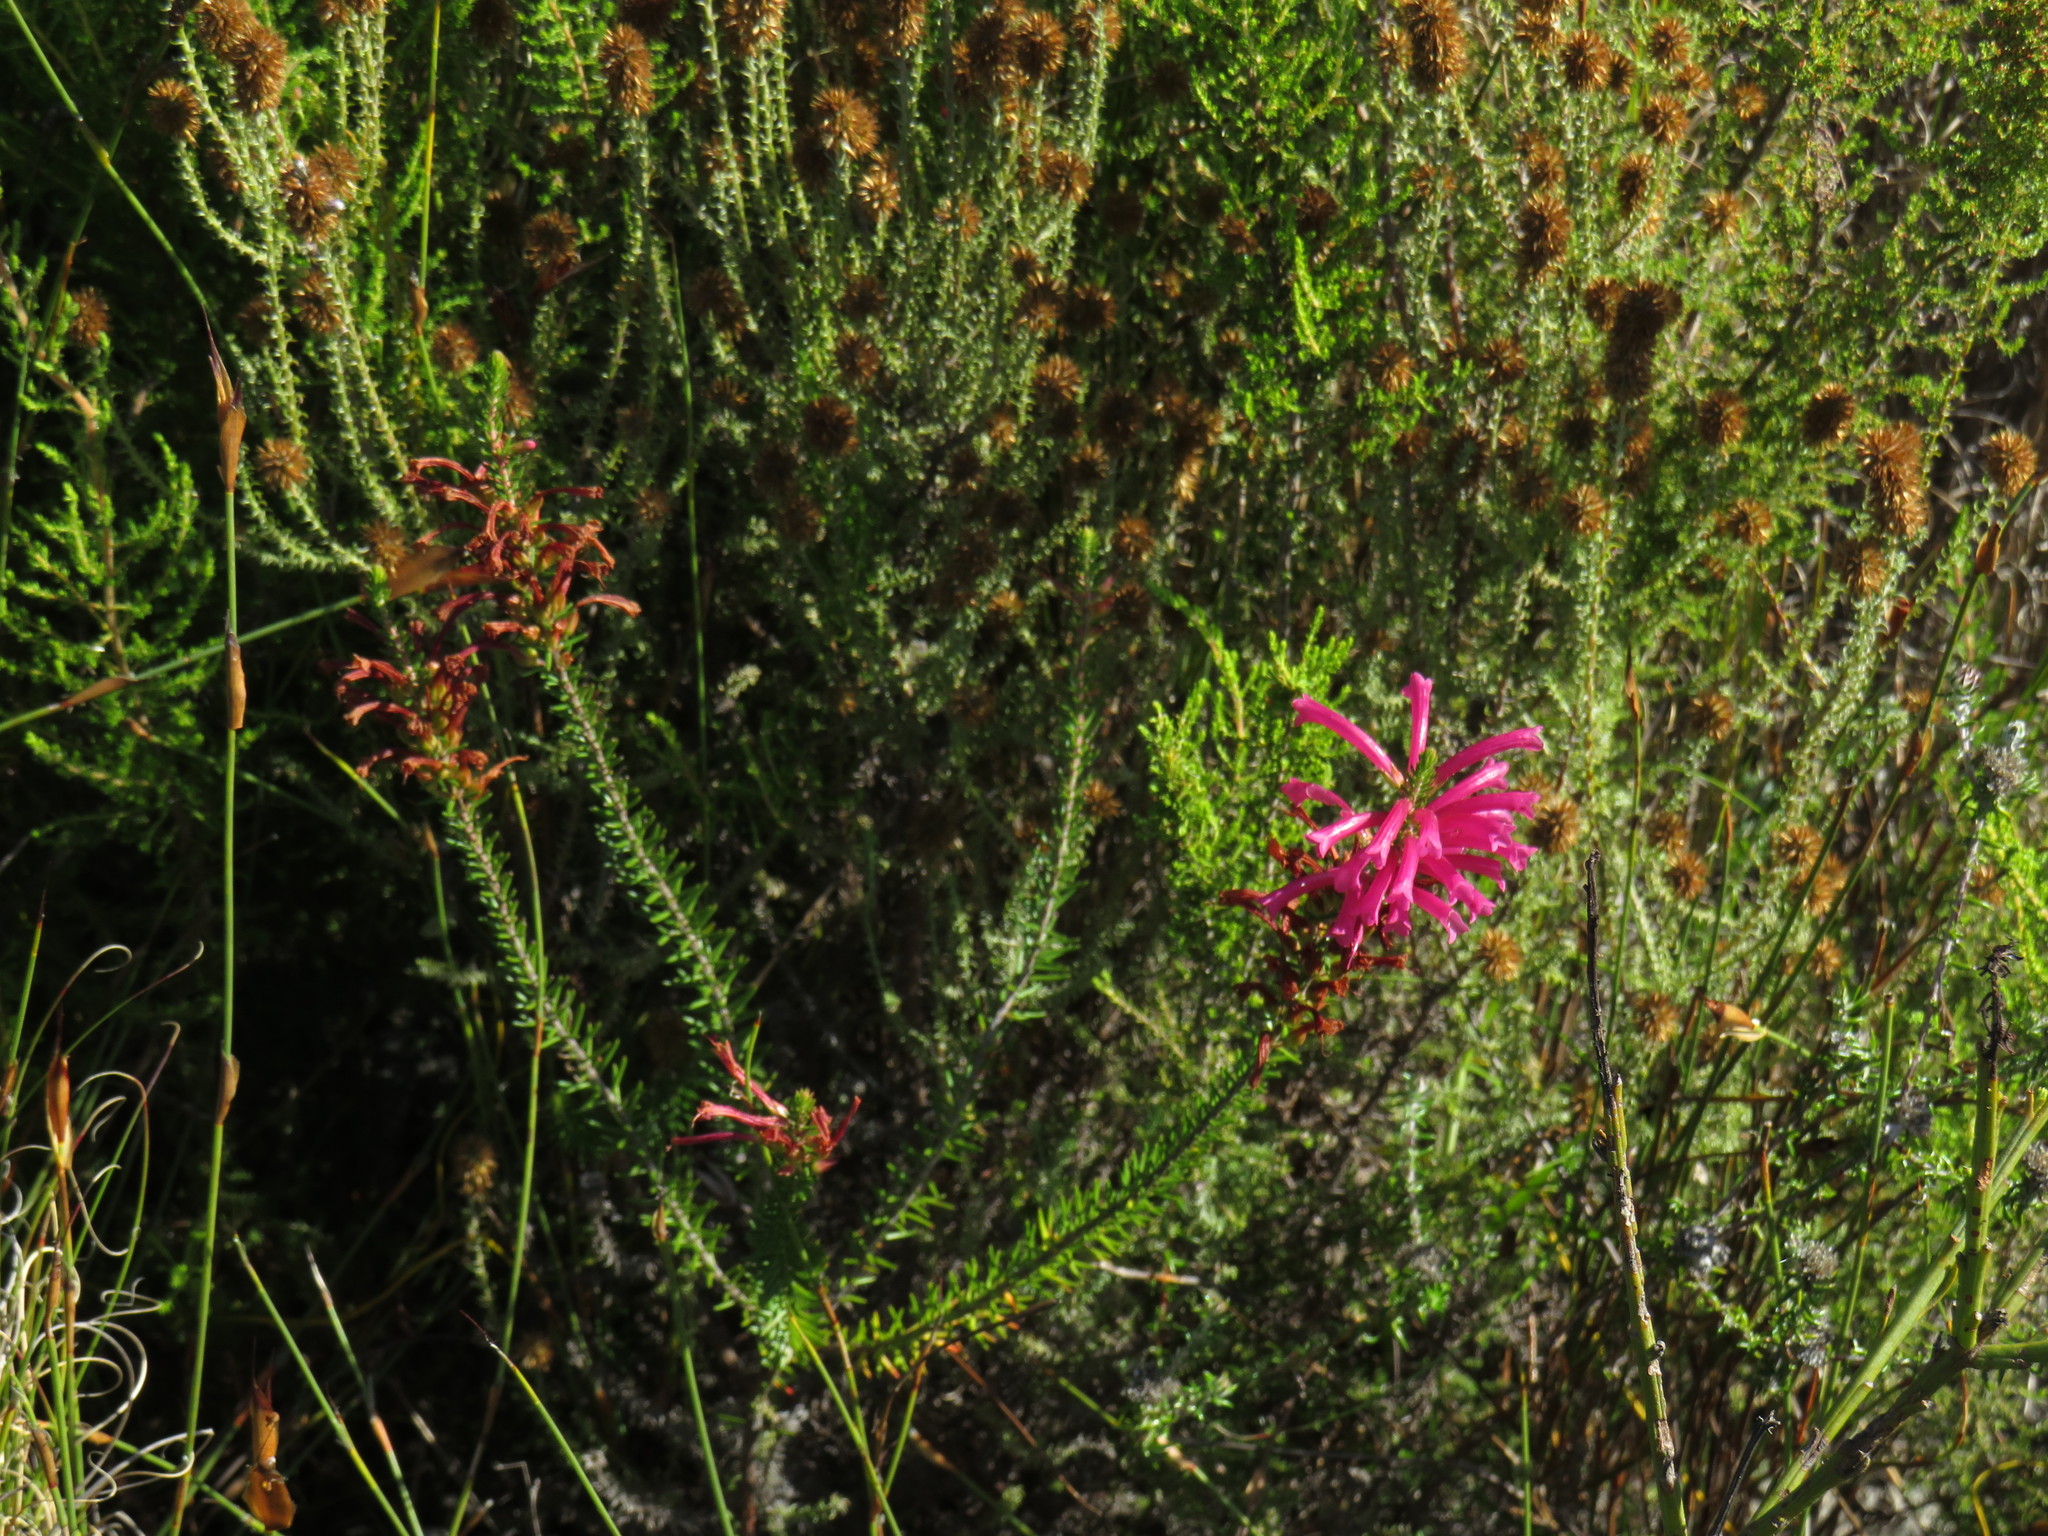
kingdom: Plantae
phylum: Tracheophyta
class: Magnoliopsida
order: Ericales
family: Ericaceae
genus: Erica
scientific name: Erica abietina
